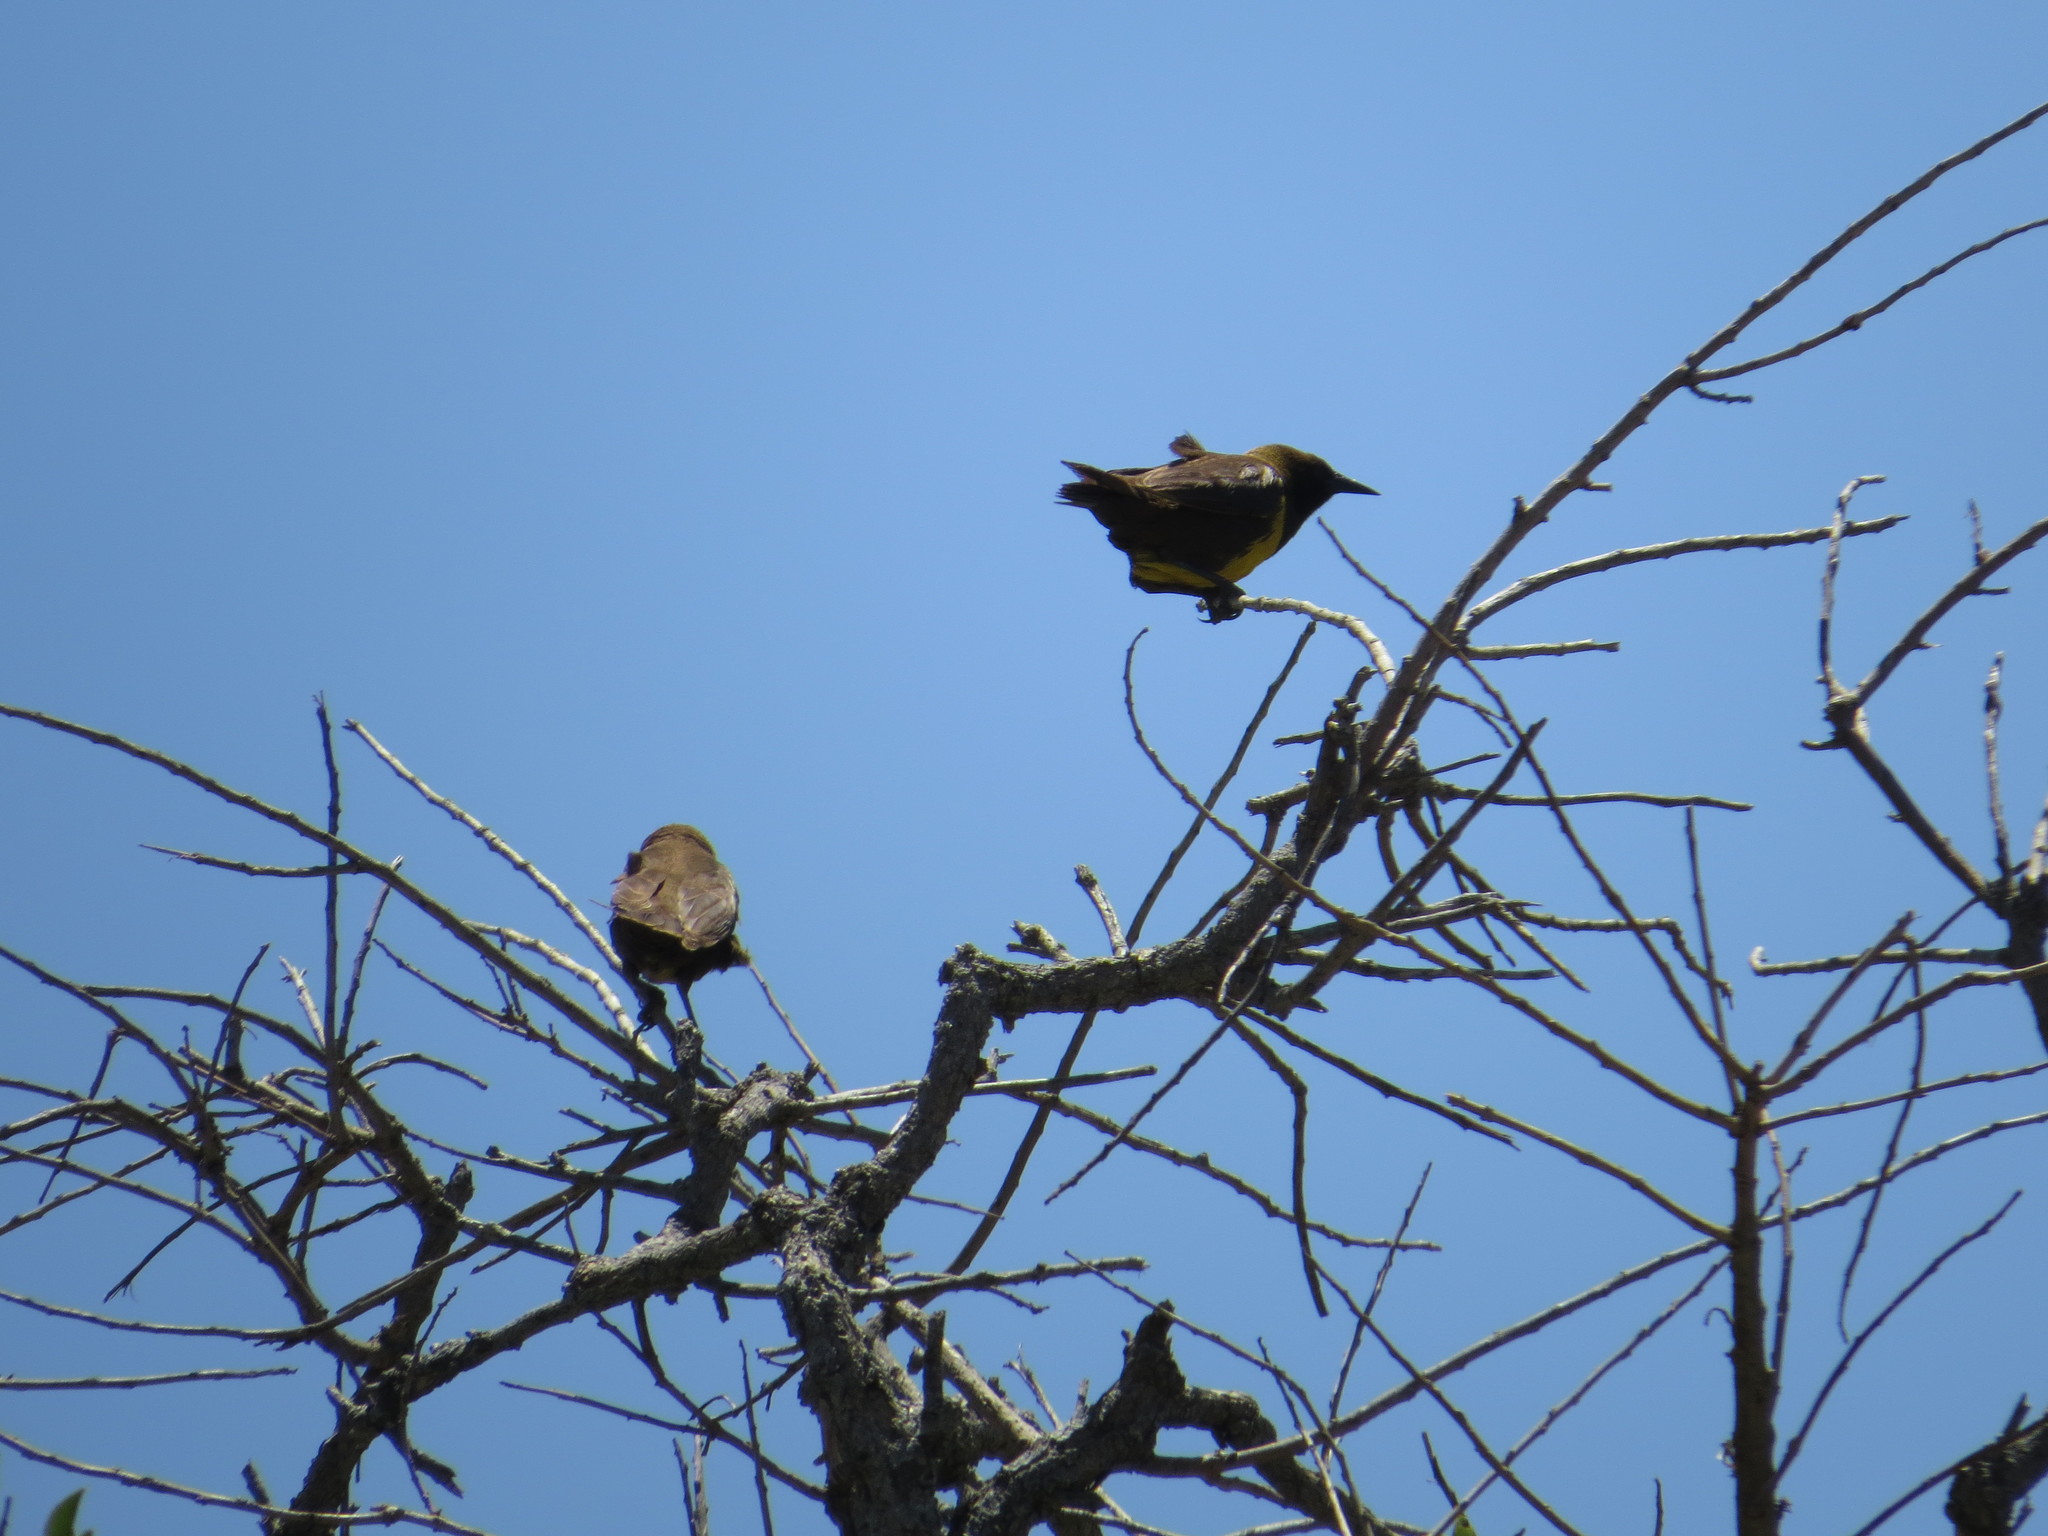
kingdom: Animalia
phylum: Chordata
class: Aves
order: Passeriformes
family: Icteridae
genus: Pseudoleistes
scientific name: Pseudoleistes virescens
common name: Brown-and-yellow marshbird
